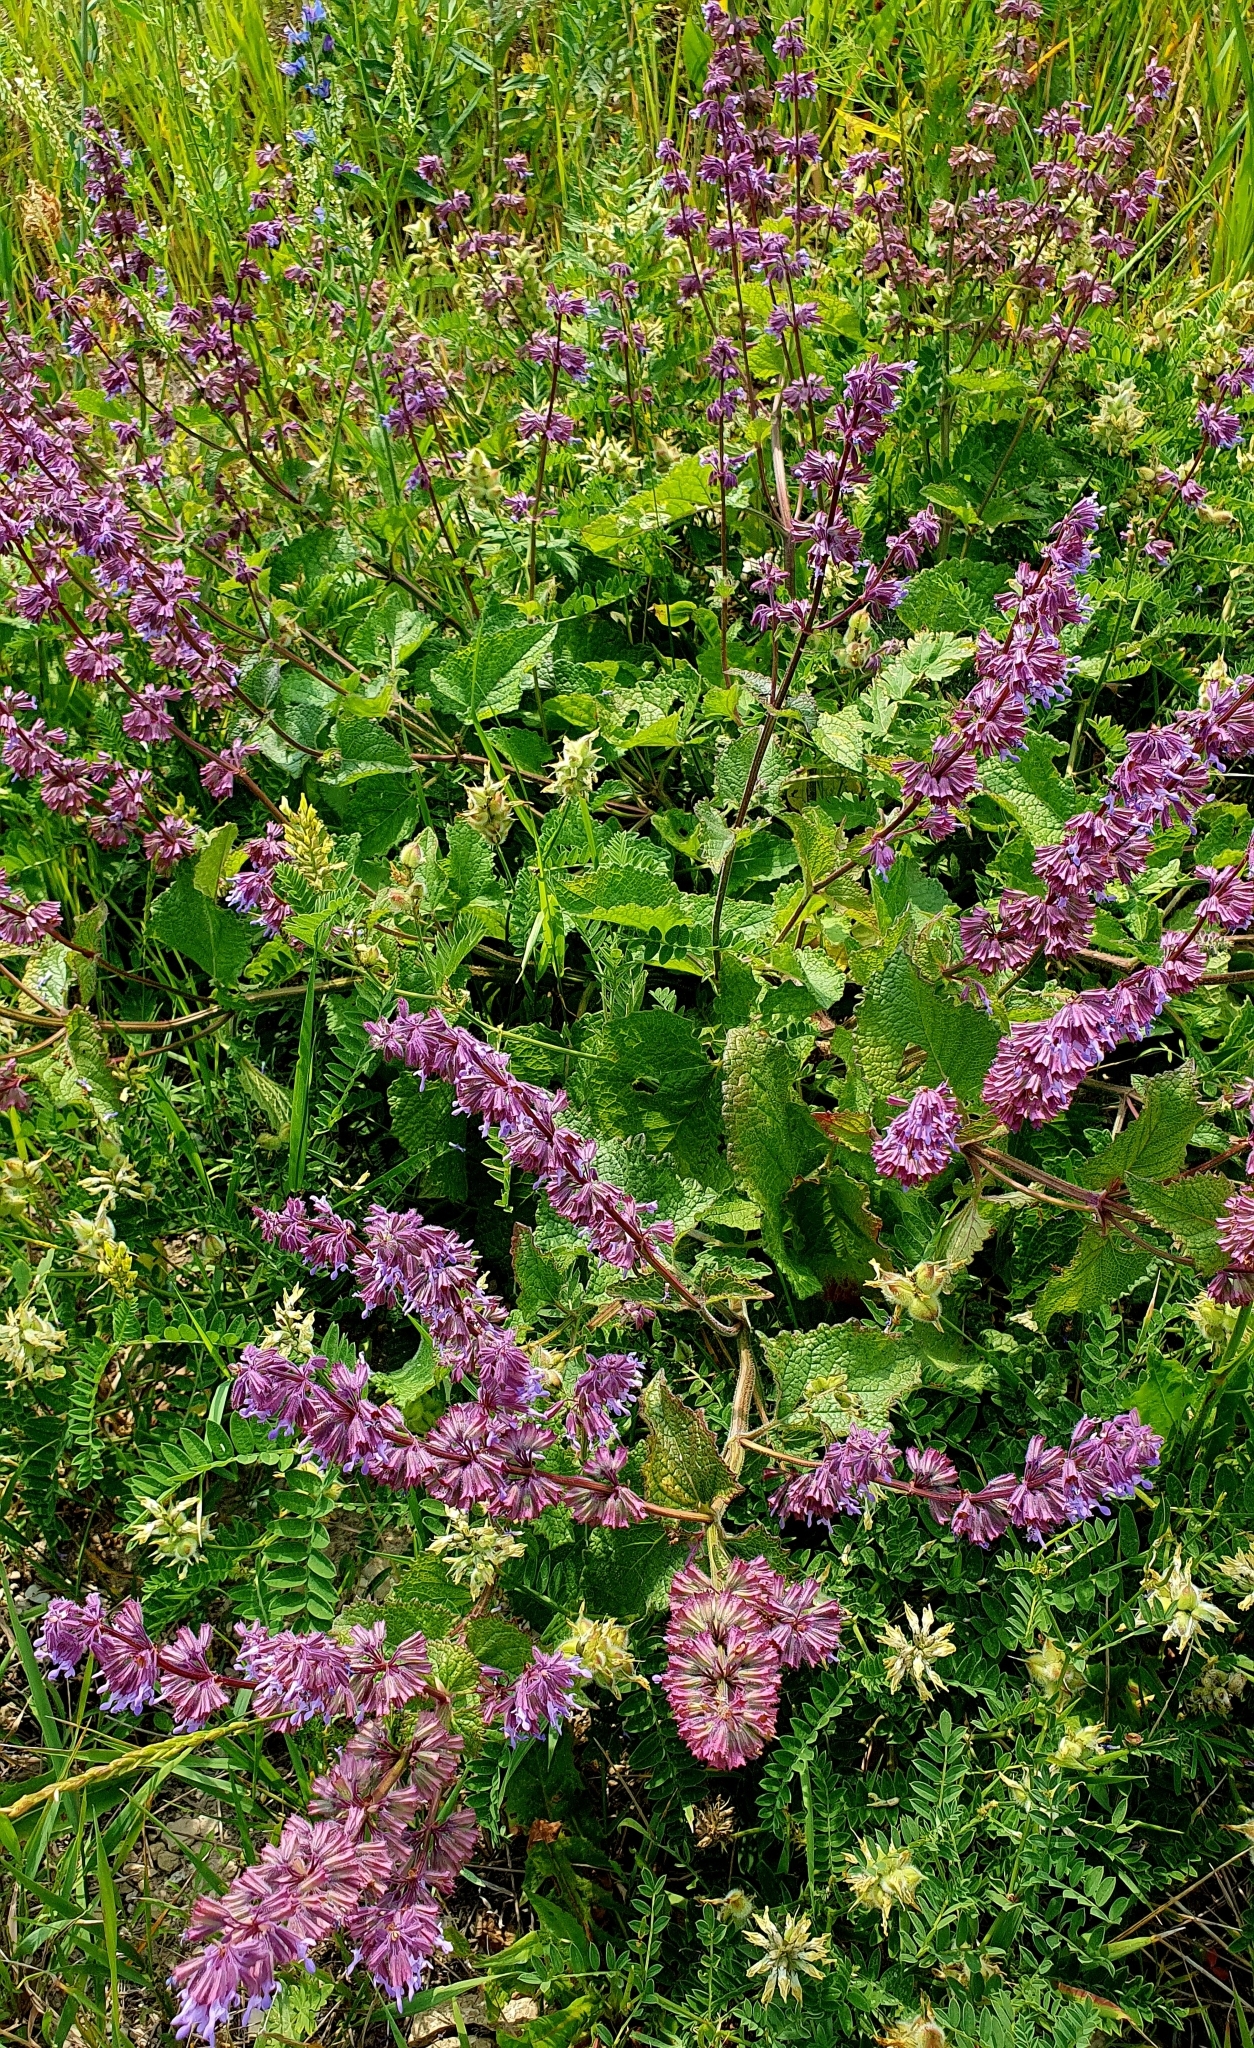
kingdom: Plantae
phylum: Tracheophyta
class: Magnoliopsida
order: Lamiales
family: Lamiaceae
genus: Salvia
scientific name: Salvia verticillata
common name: Whorled clary
